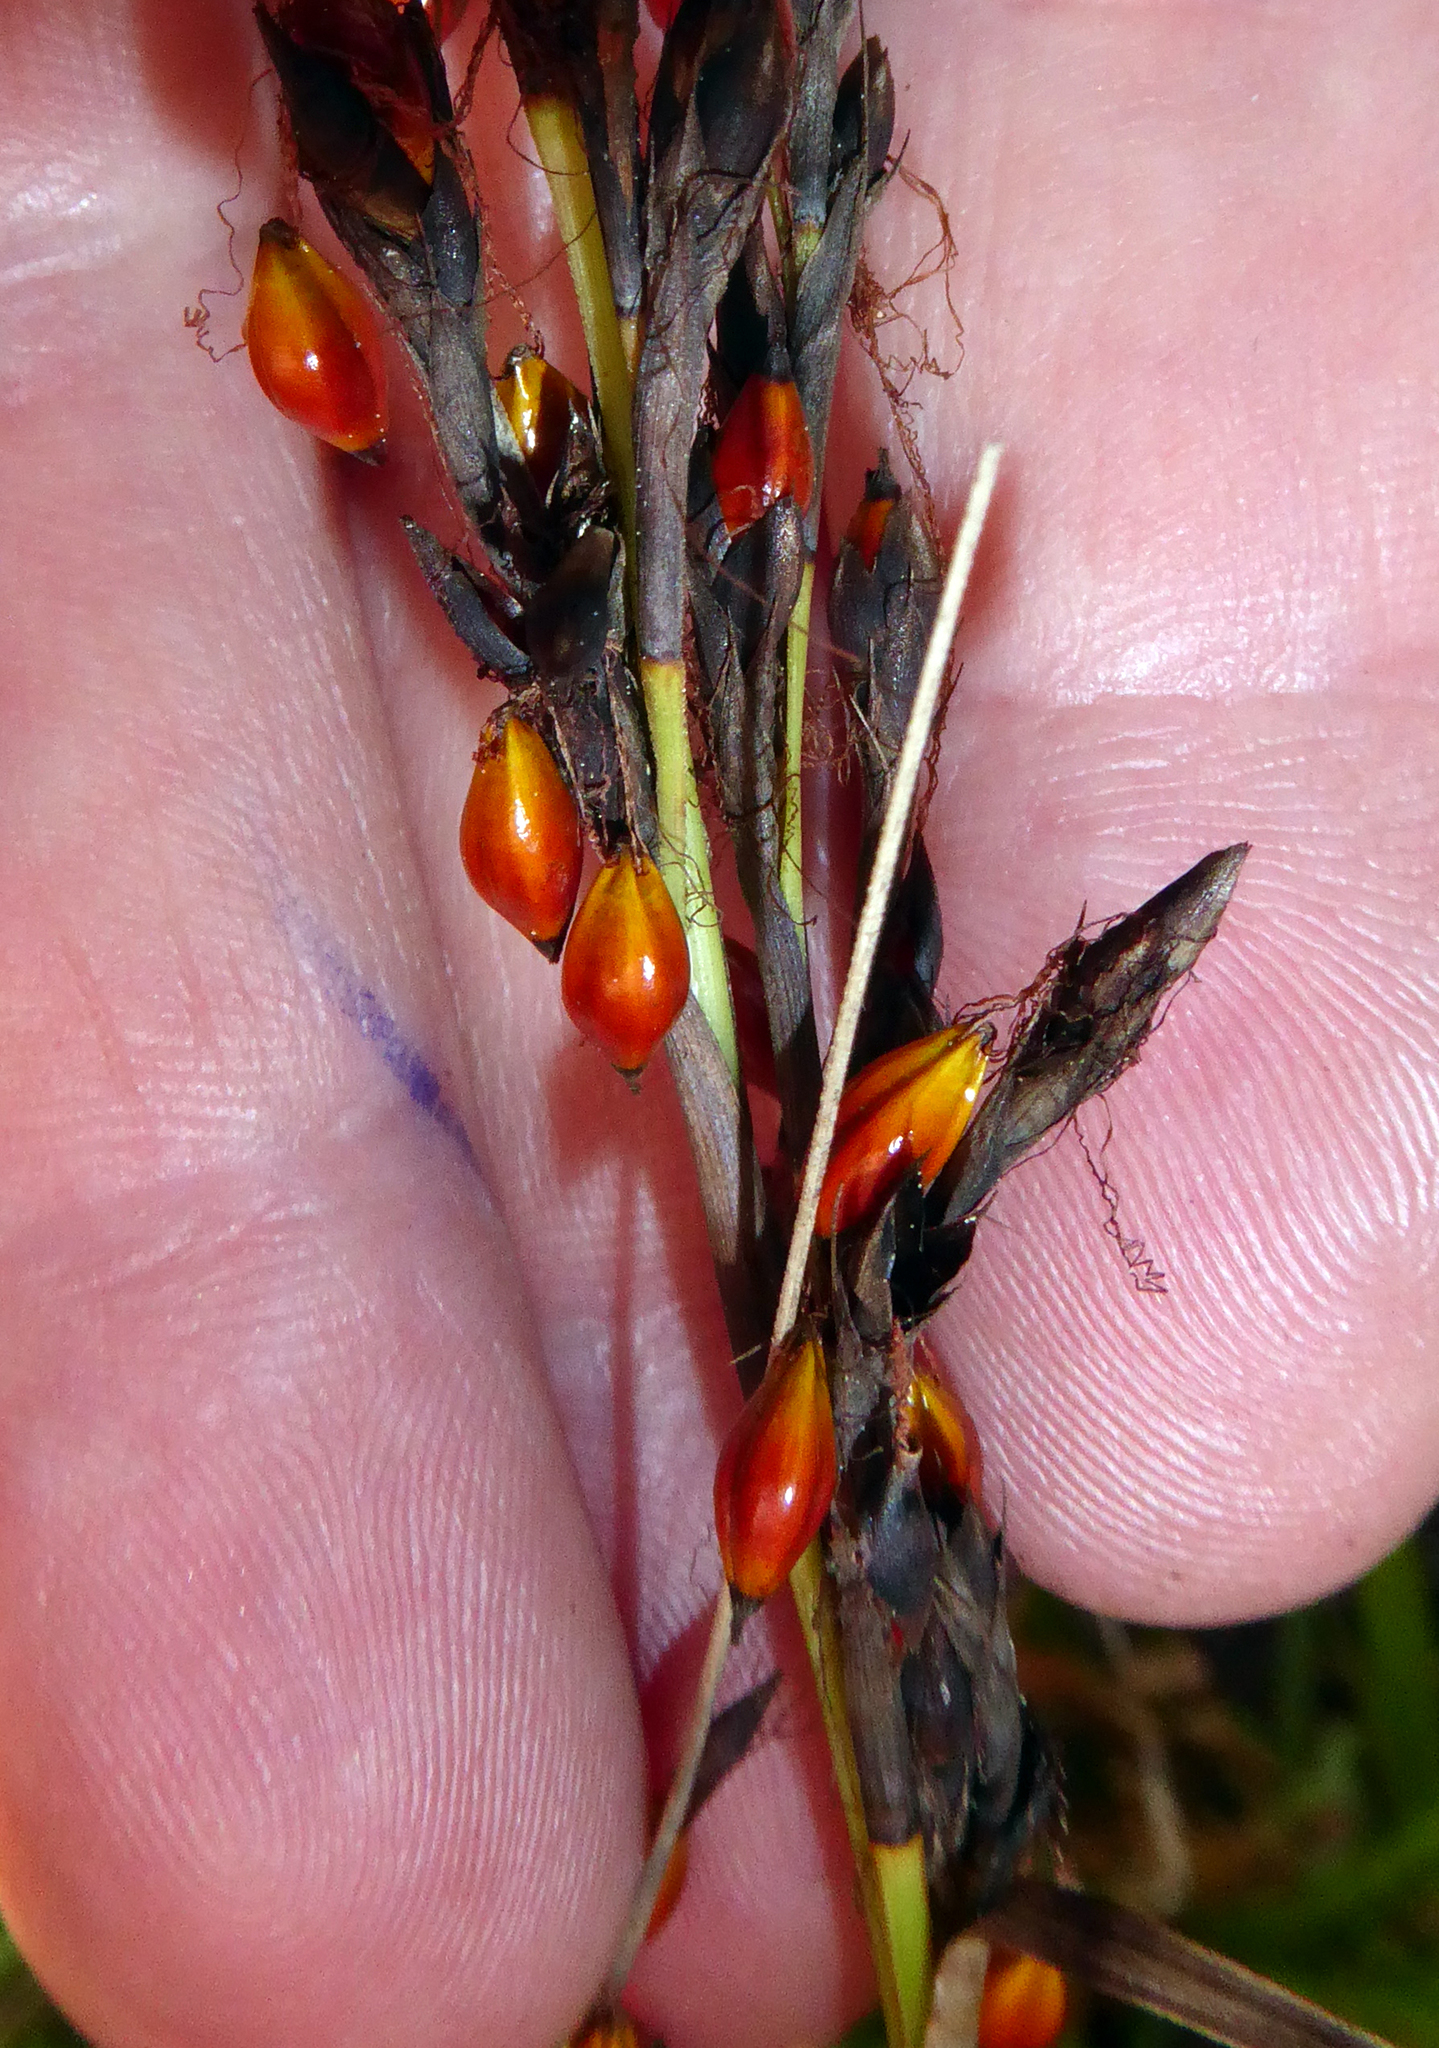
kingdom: Plantae
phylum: Tracheophyta
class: Liliopsida
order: Poales
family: Cyperaceae
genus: Gahnia
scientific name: Gahnia pauciflora
